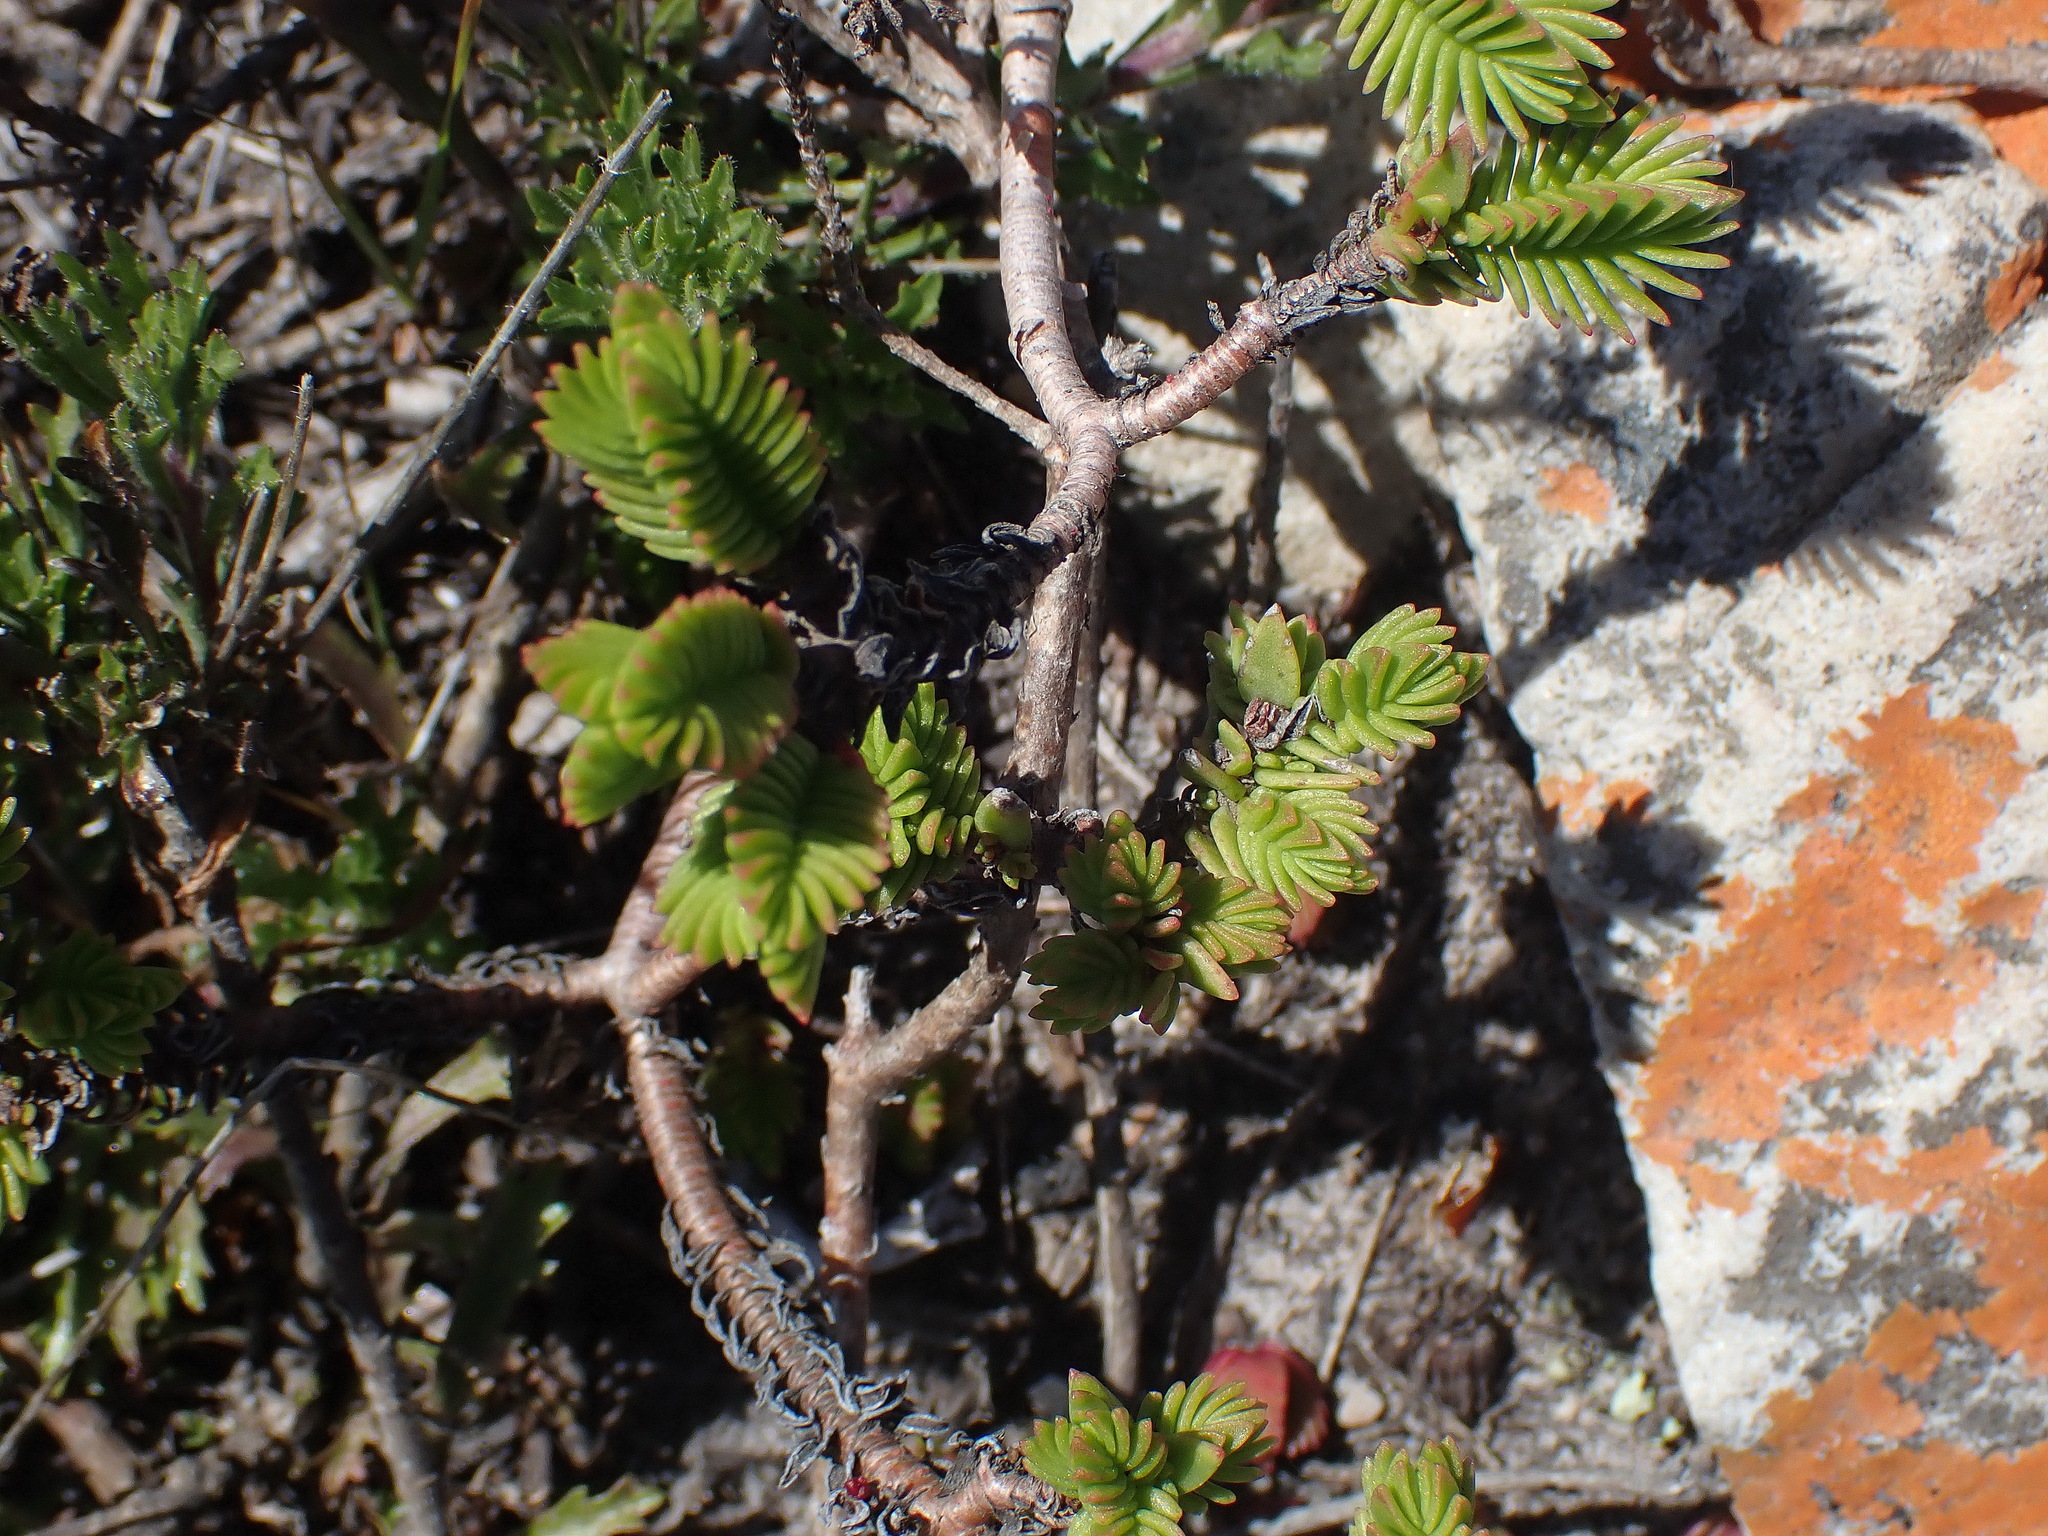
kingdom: Plantae
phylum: Tracheophyta
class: Magnoliopsida
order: Saxifragales
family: Crassulaceae
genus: Crassula
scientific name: Crassula ericoides
